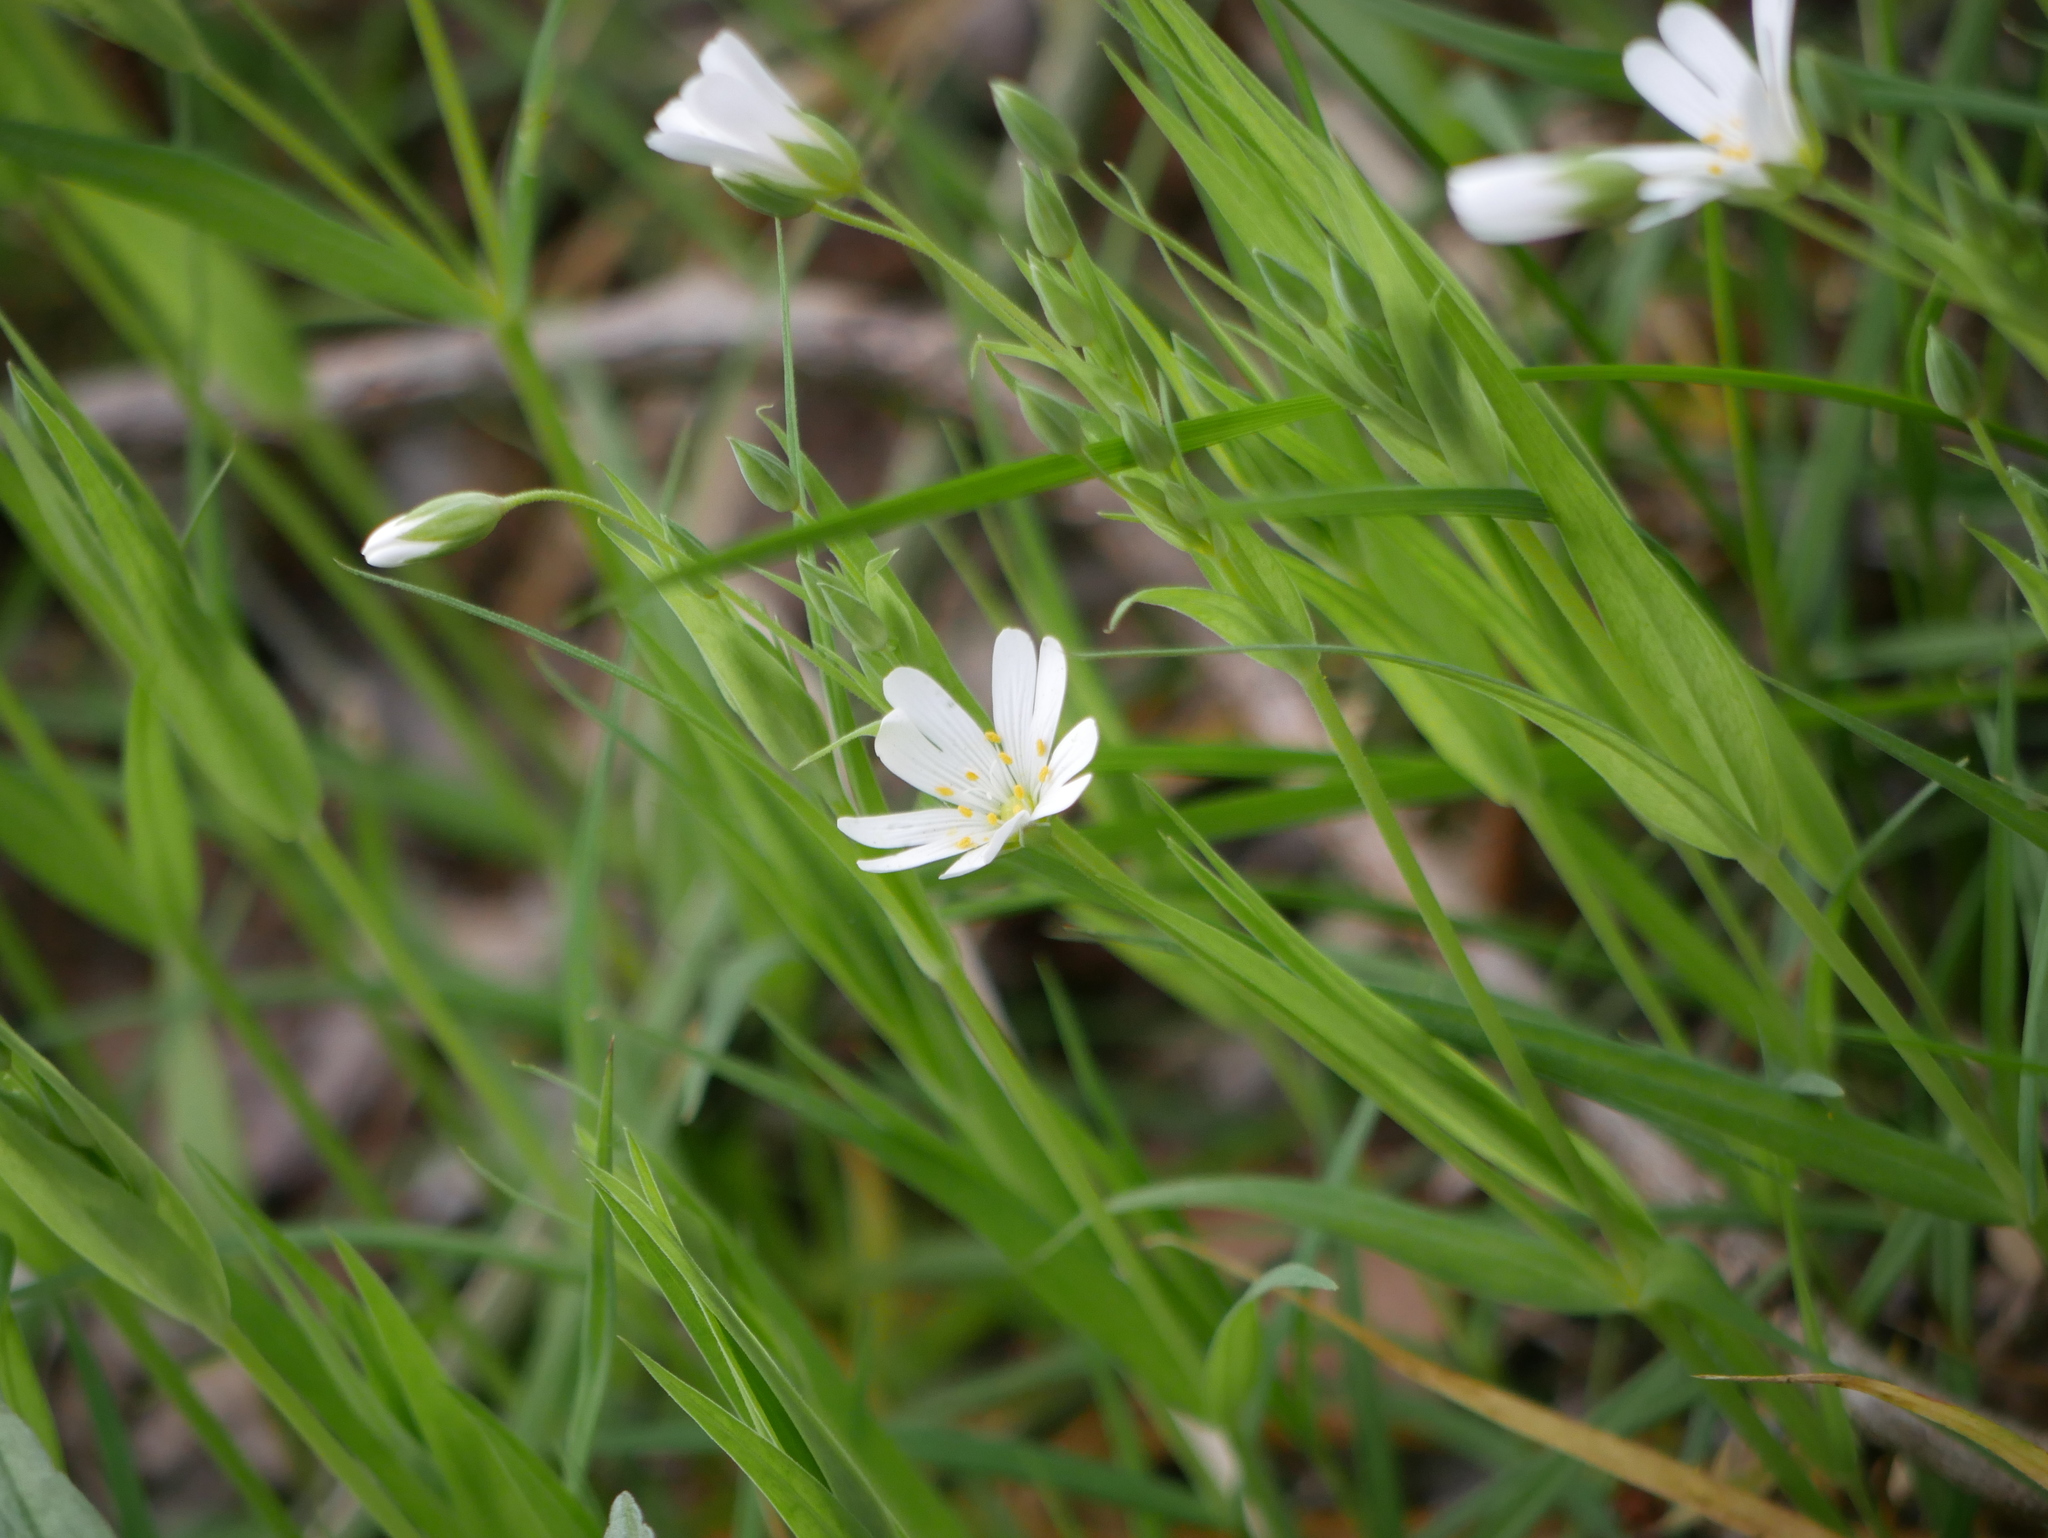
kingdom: Plantae
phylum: Tracheophyta
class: Magnoliopsida
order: Caryophyllales
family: Caryophyllaceae
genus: Rabelera
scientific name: Rabelera holostea
